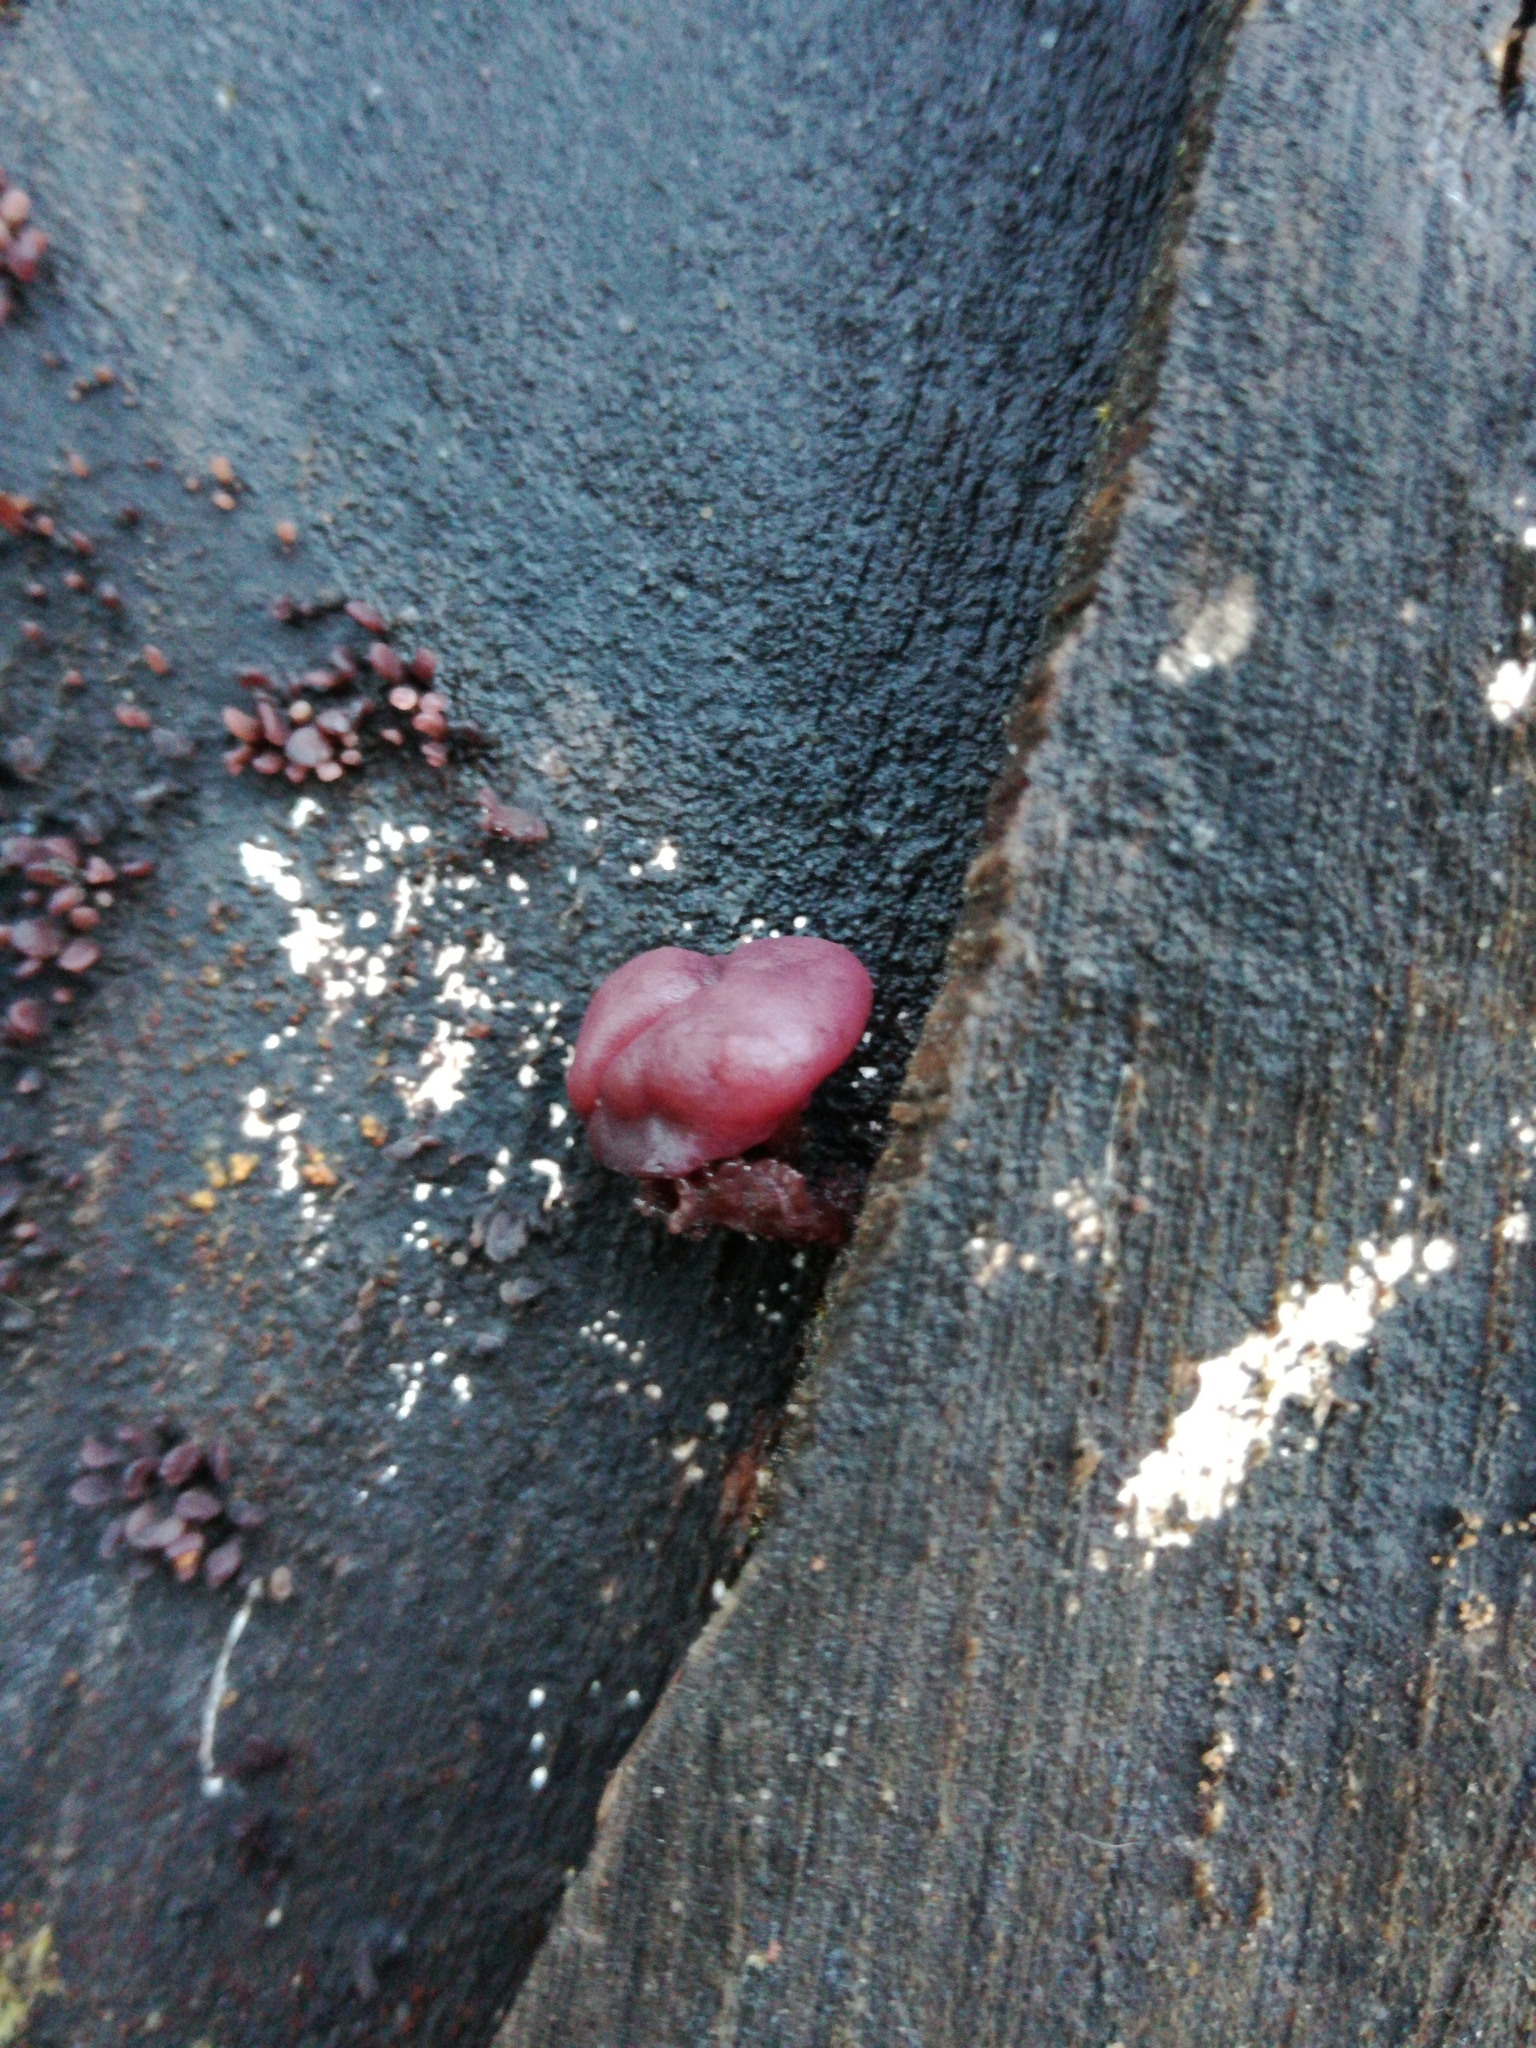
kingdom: Fungi
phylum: Ascomycota
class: Leotiomycetes
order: Helotiales
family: Gelatinodiscaceae
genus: Ascocoryne
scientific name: Ascocoryne sarcoides
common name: Purple jellydisc
